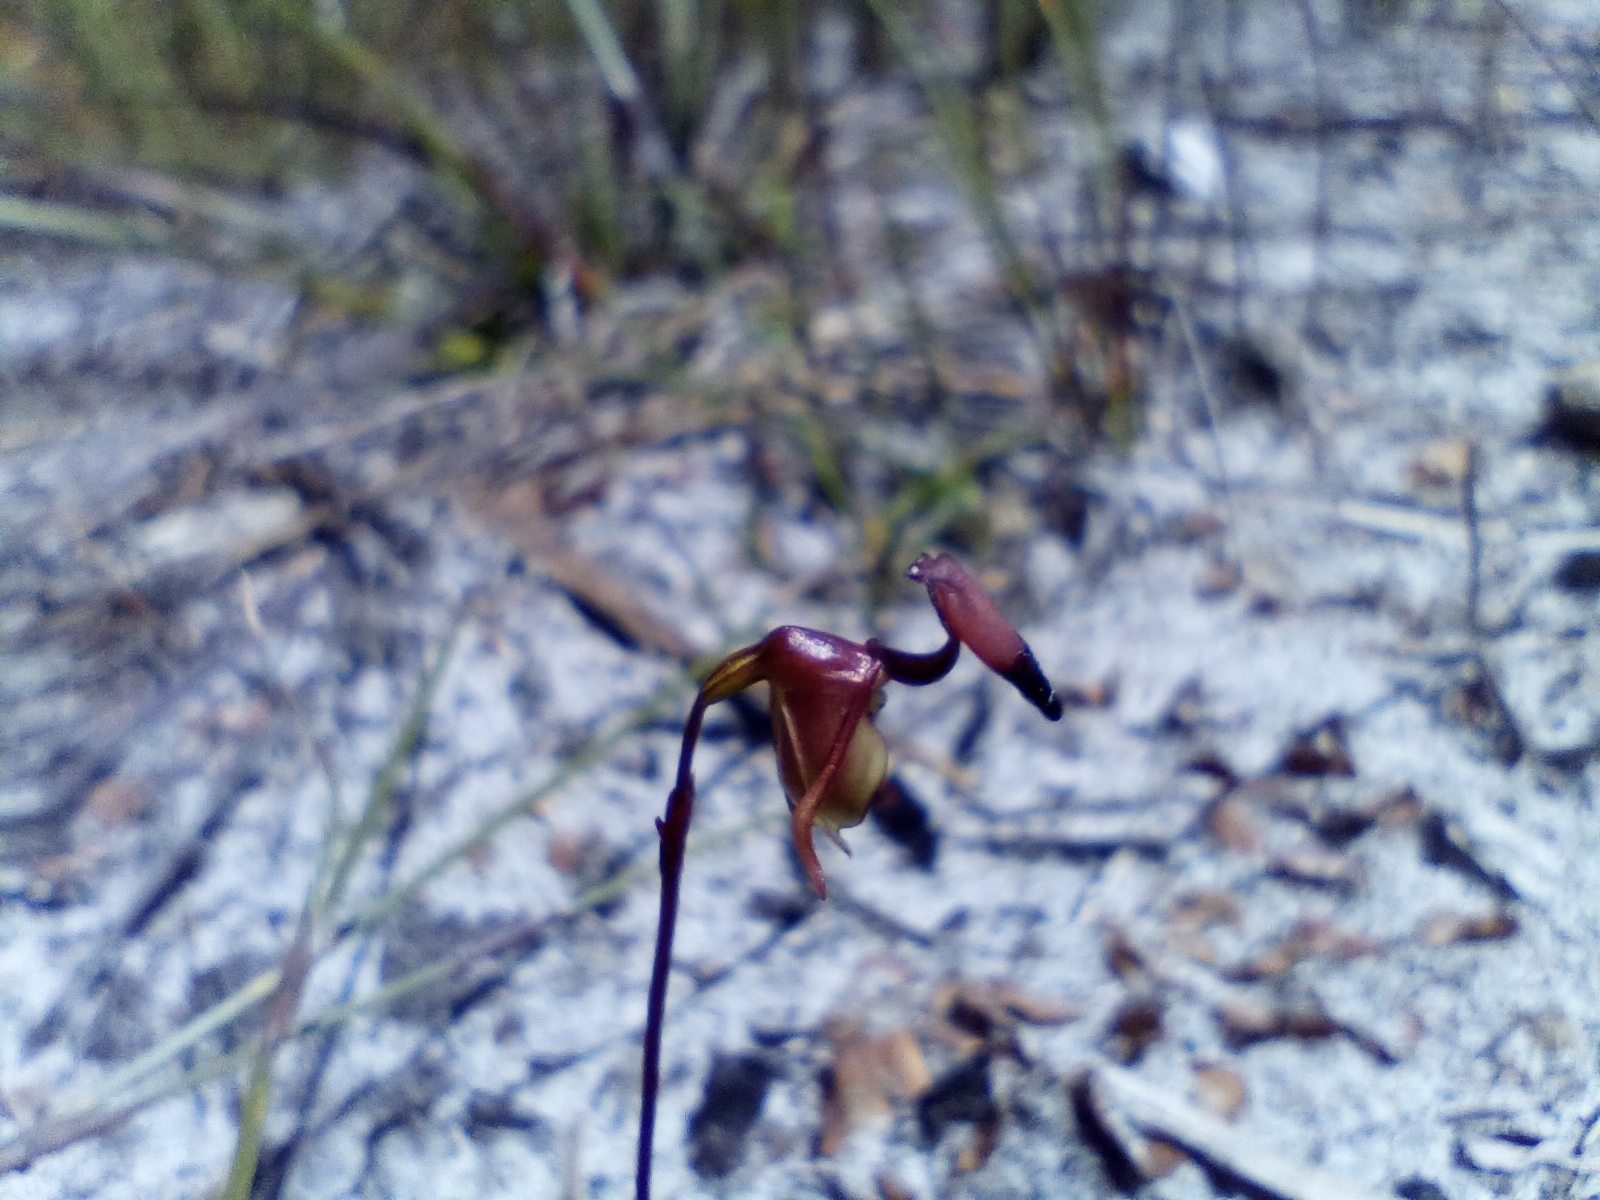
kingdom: Plantae
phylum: Tracheophyta
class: Liliopsida
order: Asparagales
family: Orchidaceae
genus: Caleana
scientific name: Caleana brockmanii
